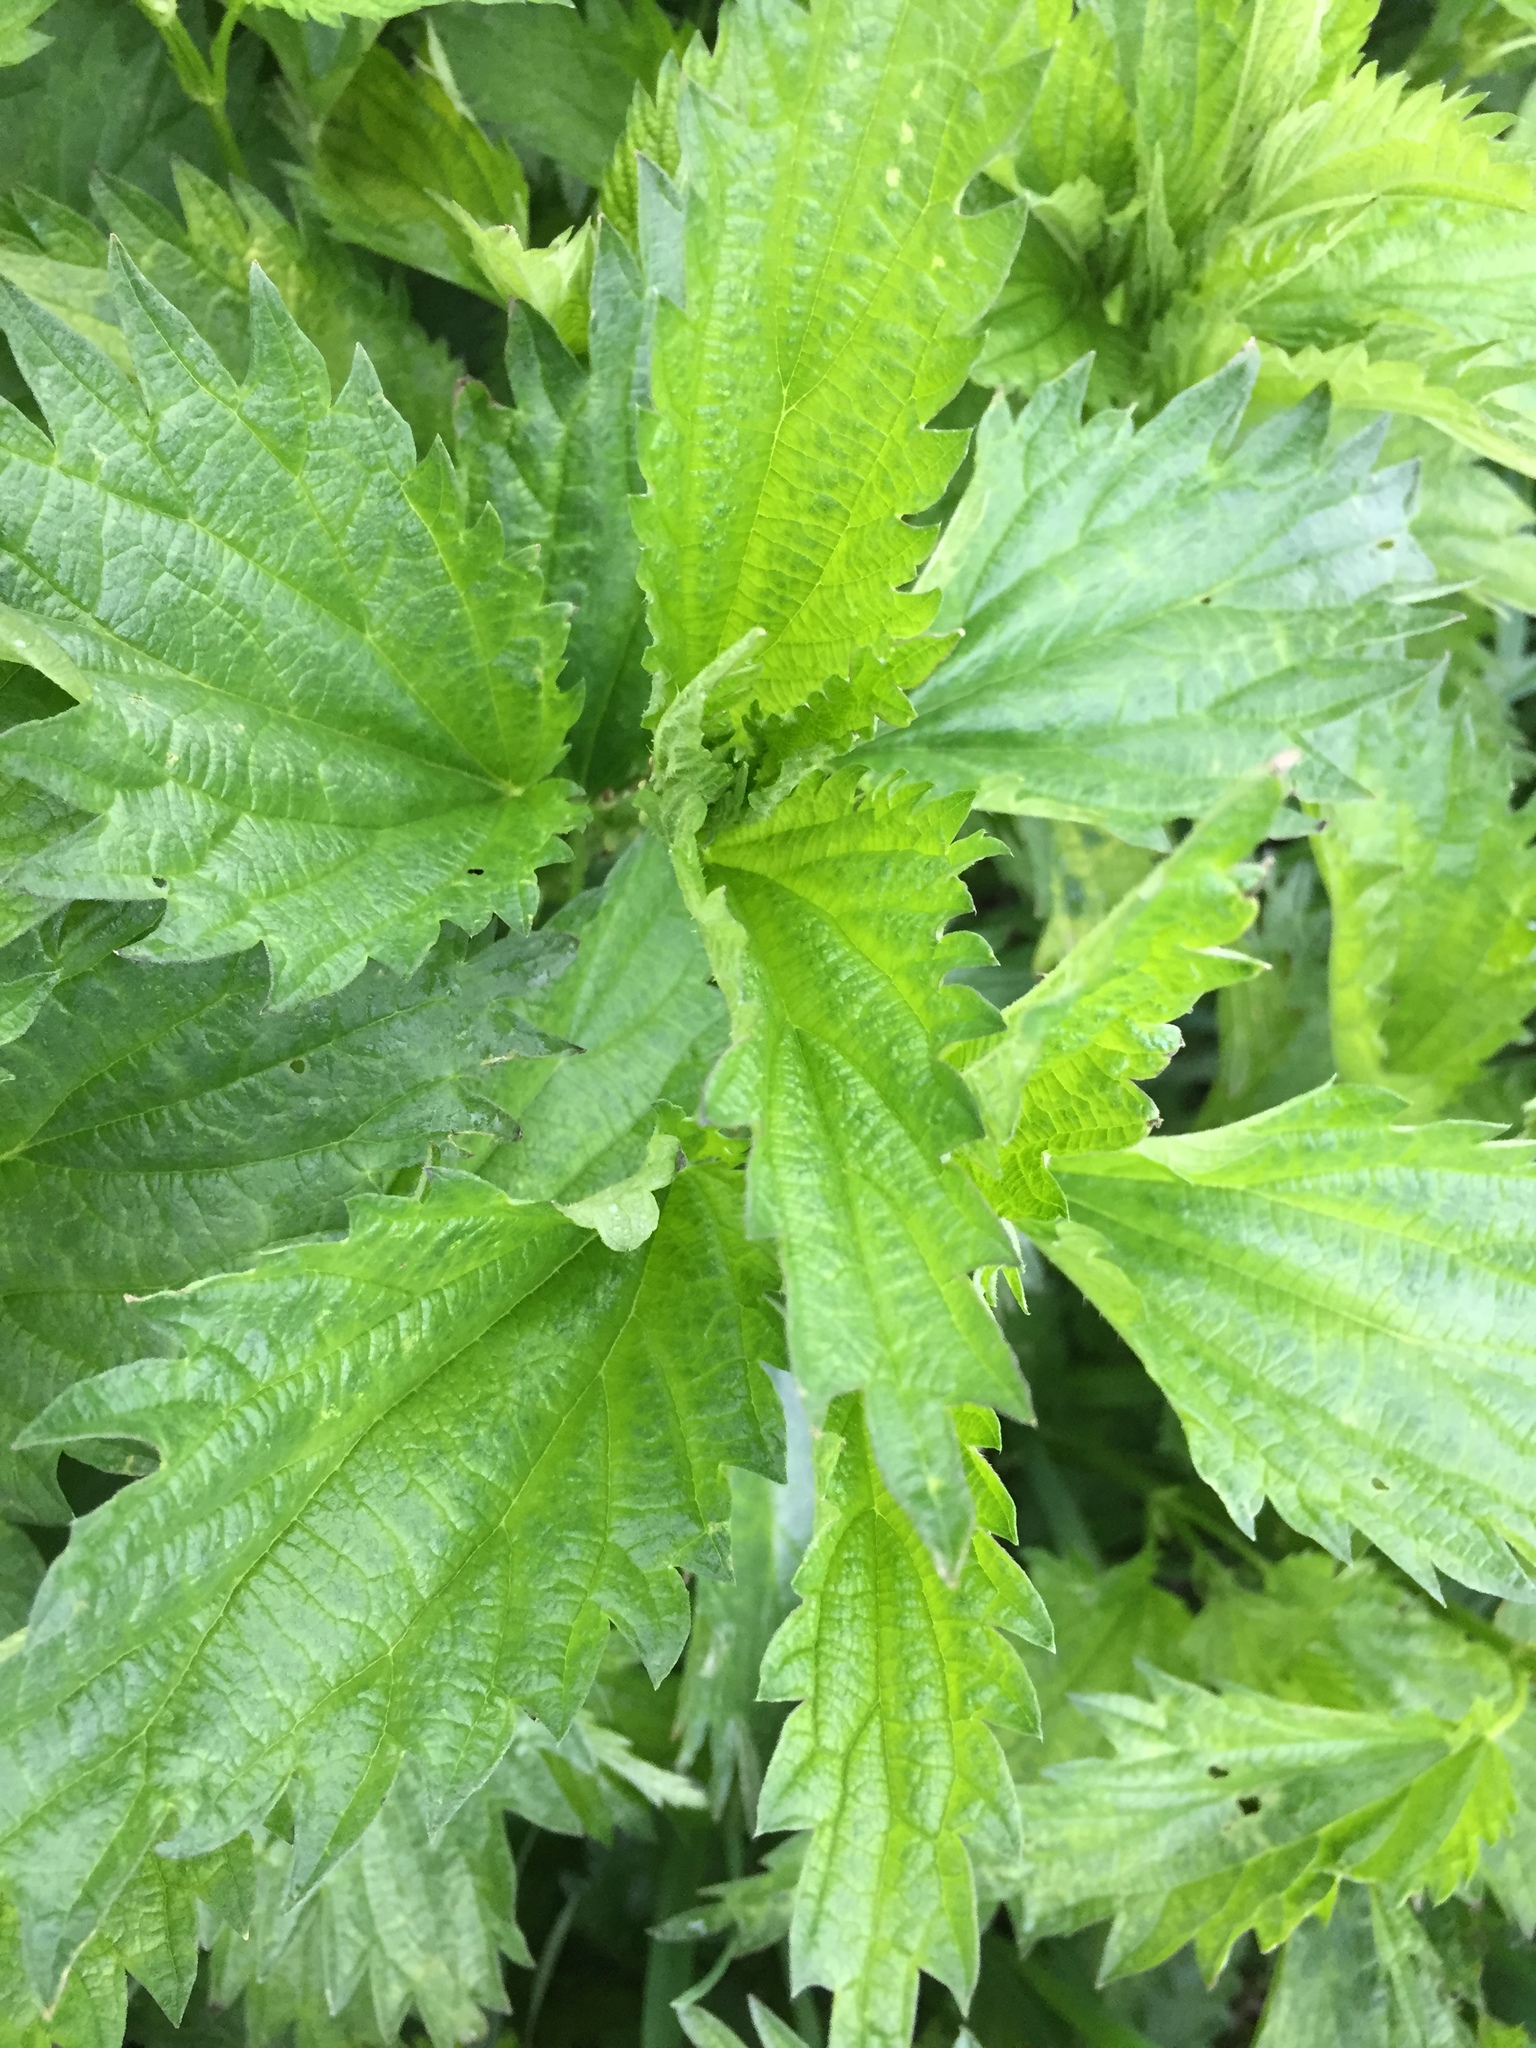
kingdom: Plantae
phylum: Tracheophyta
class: Magnoliopsida
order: Rosales
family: Urticaceae
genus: Urtica
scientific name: Urtica dioica
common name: Common nettle
